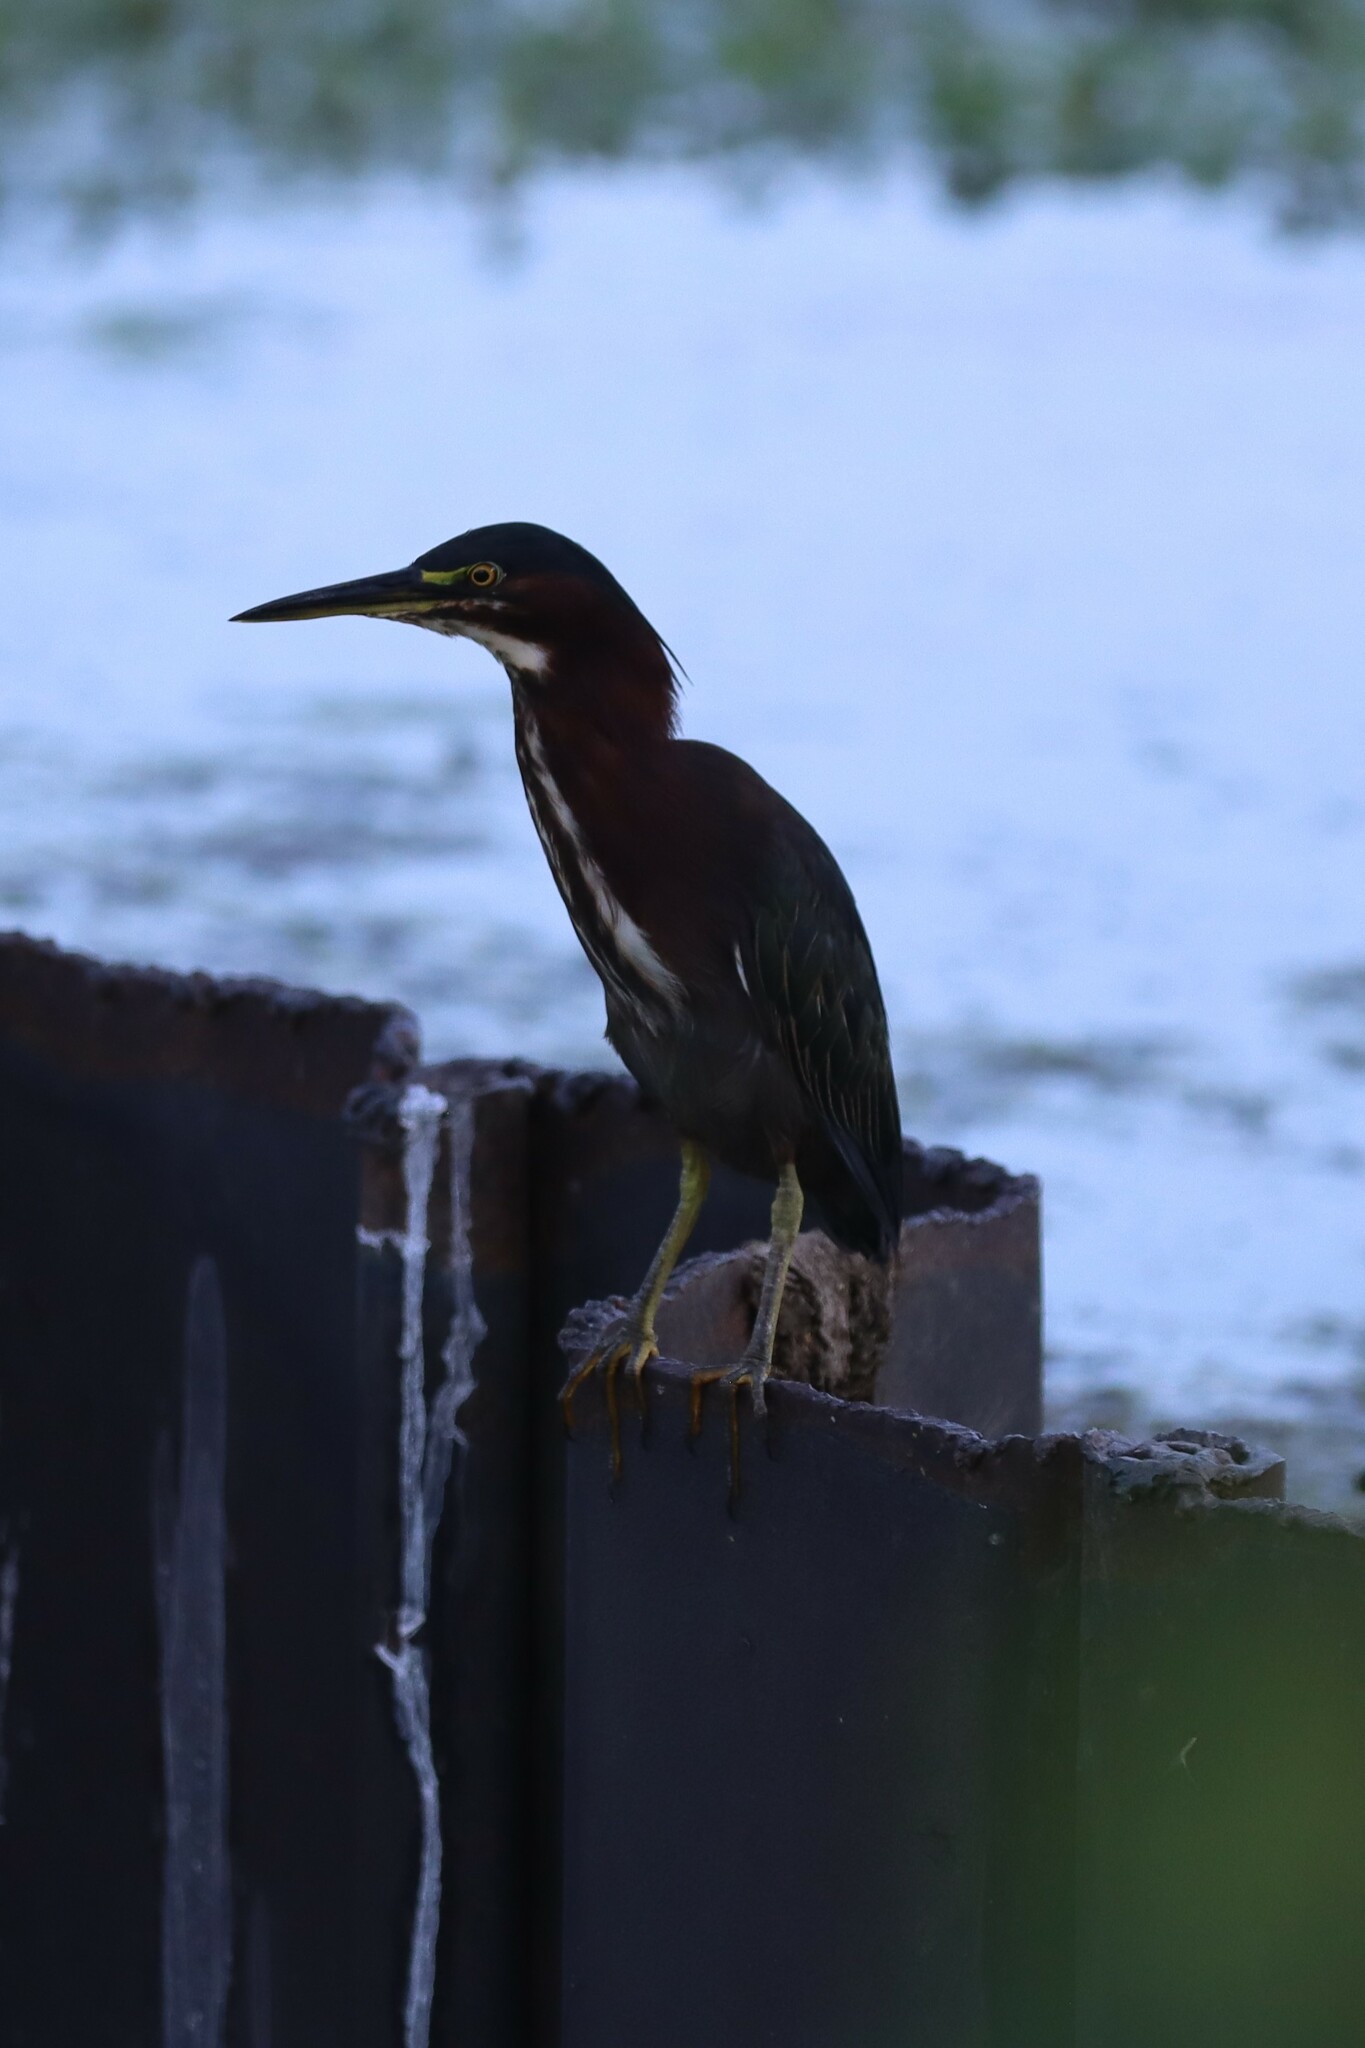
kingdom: Animalia
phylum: Chordata
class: Aves
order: Pelecaniformes
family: Ardeidae
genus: Butorides
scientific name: Butorides virescens
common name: Green heron
